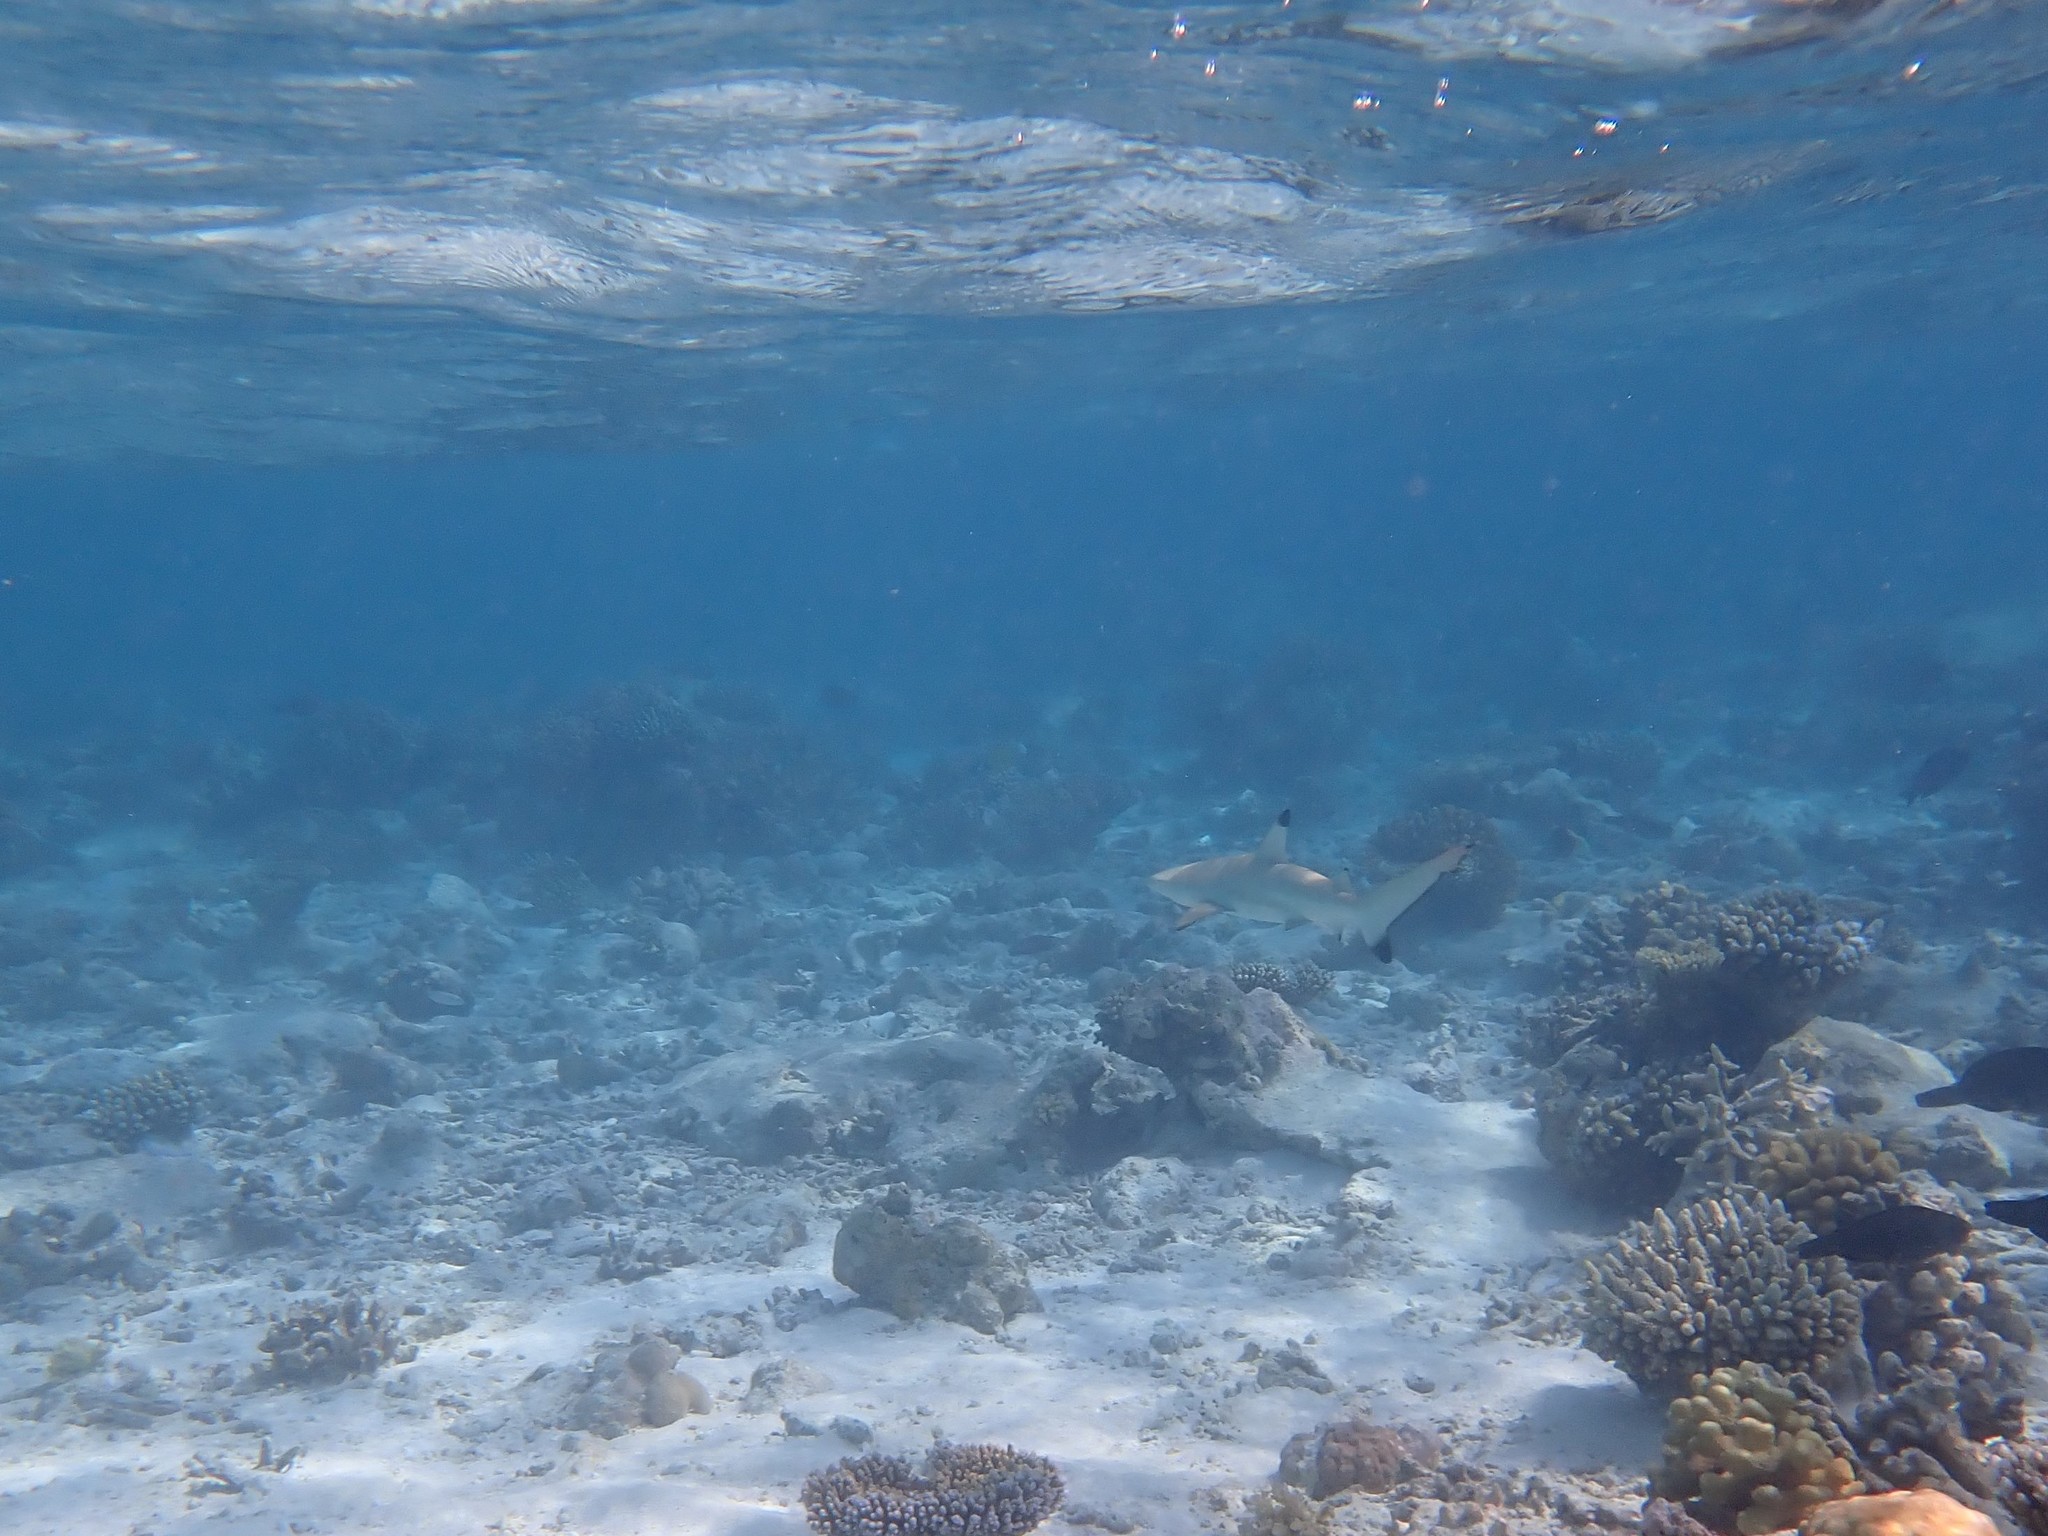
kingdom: Animalia
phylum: Chordata
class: Elasmobranchii
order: Carcharhiniformes
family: Carcharhinidae
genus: Carcharhinus
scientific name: Carcharhinus melanopterus
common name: Blacktip reef shark
